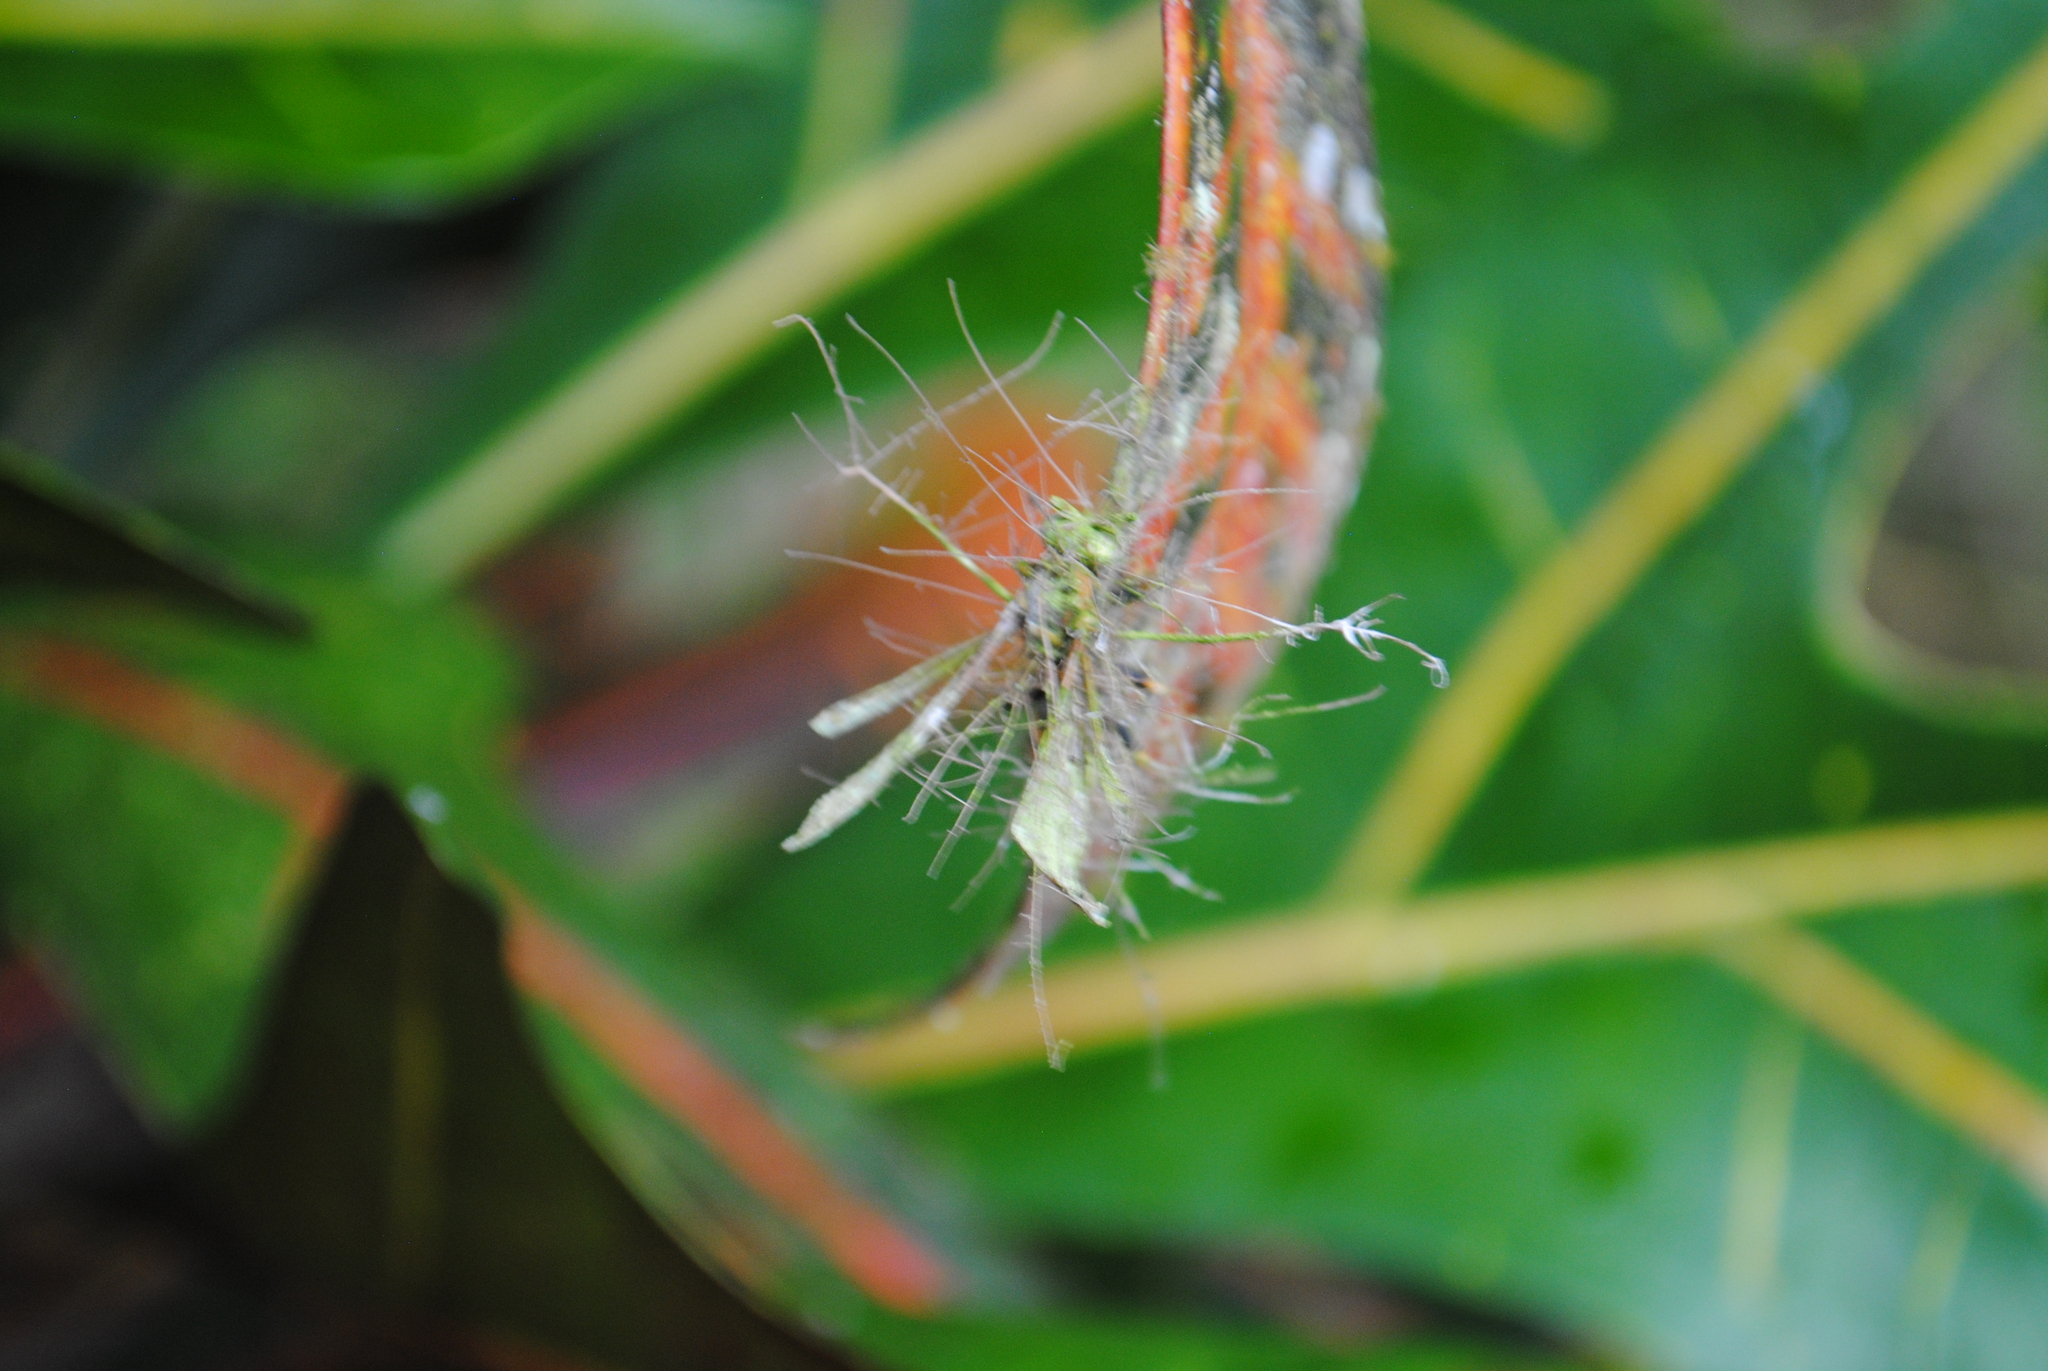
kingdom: Fungi
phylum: Ascomycota
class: Sordariomycetes
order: Hypocreales
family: Ophiocordycipitaceae
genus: Ophiocordyceps
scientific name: Ophiocordyceps humbertii
